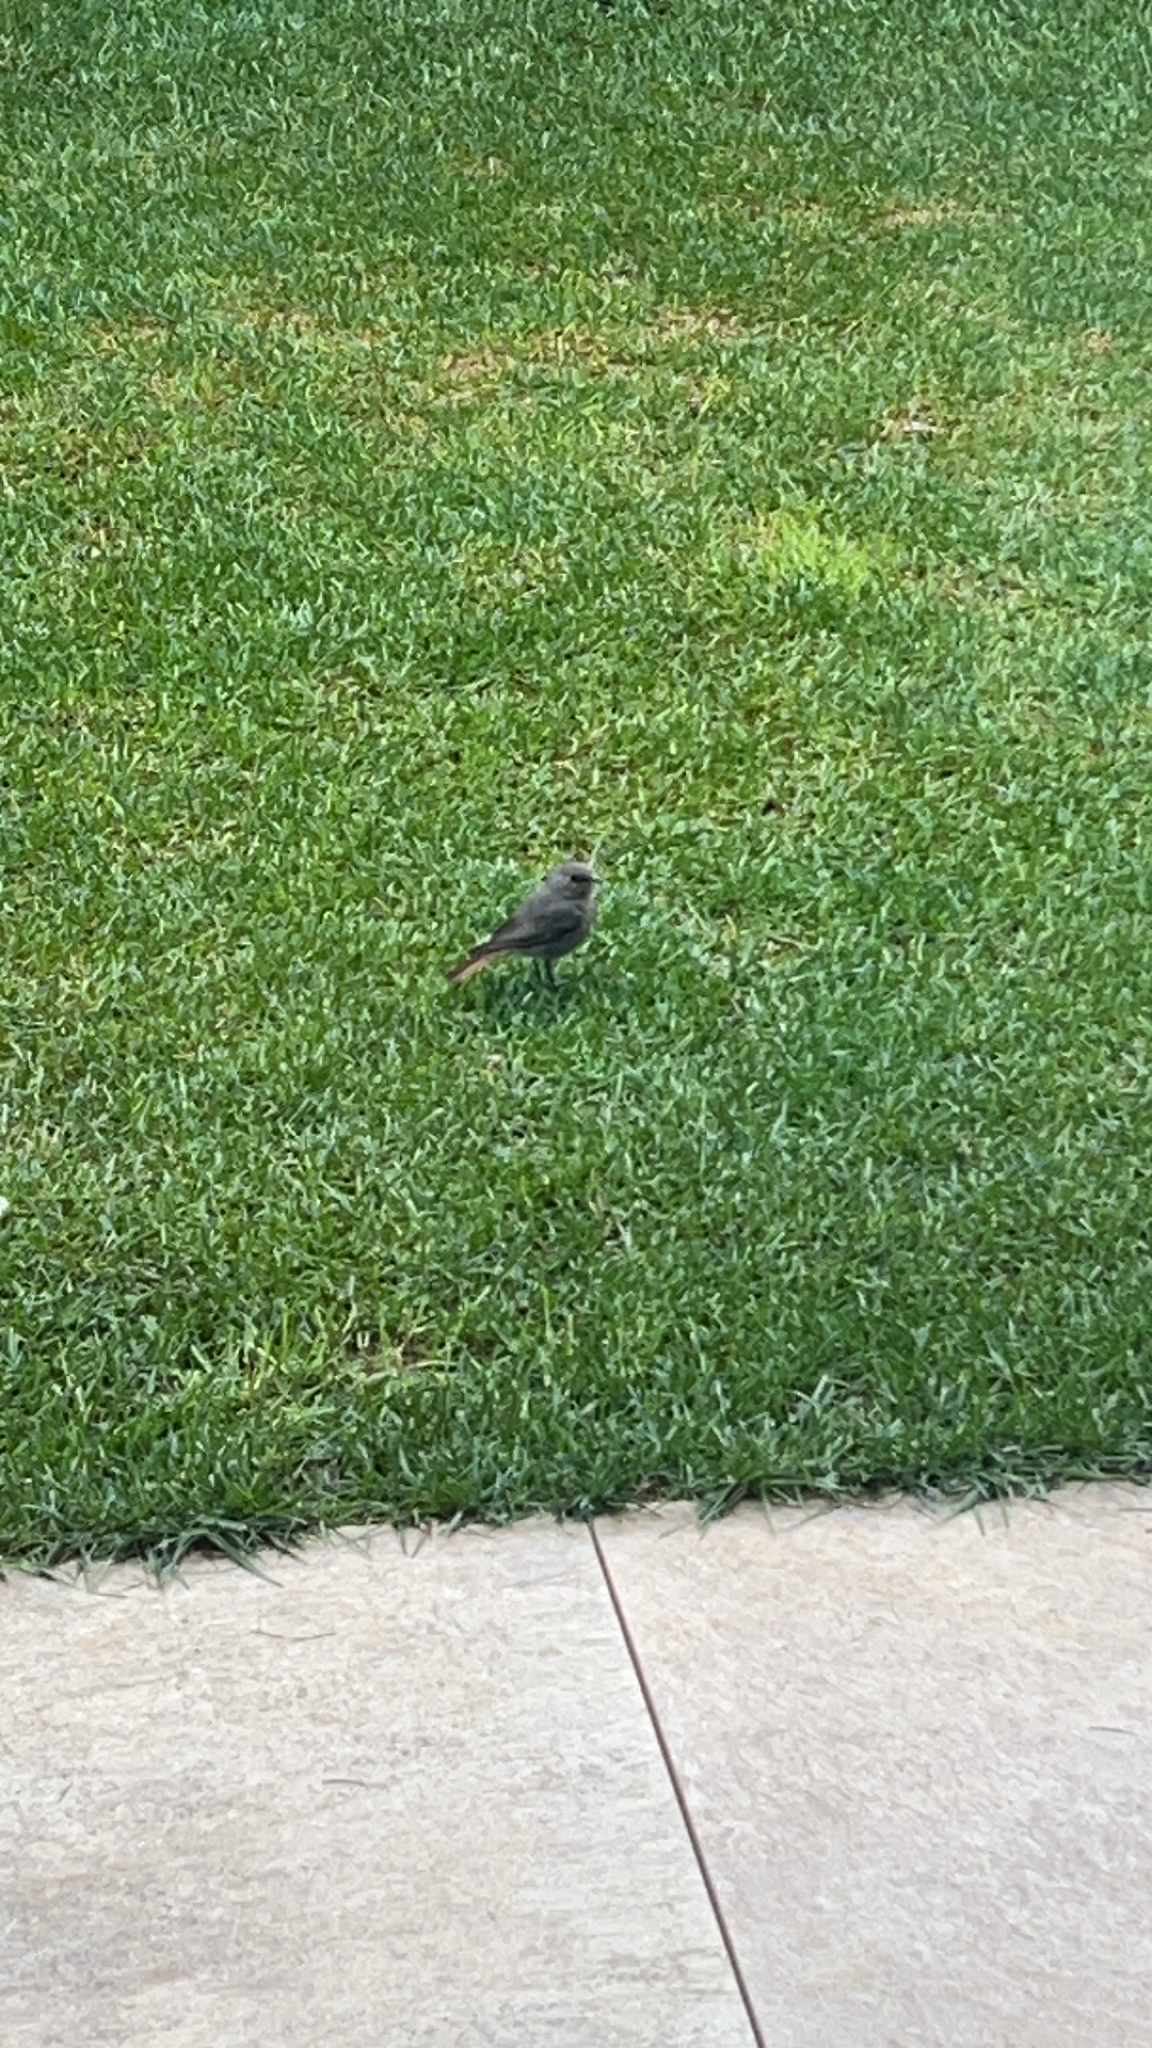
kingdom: Animalia
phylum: Chordata
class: Aves
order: Passeriformes
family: Muscicapidae
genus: Phoenicurus
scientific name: Phoenicurus ochruros
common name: Black redstart
